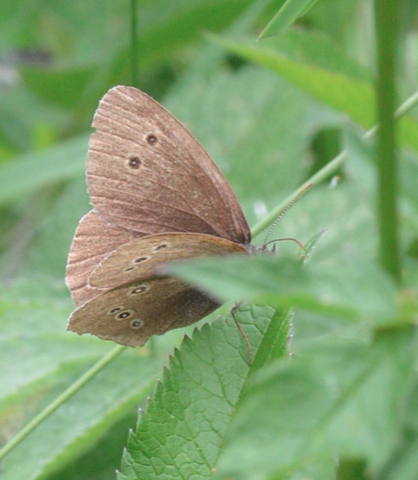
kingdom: Animalia
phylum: Arthropoda
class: Insecta
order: Lepidoptera
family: Nymphalidae
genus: Aphantopus
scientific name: Aphantopus hyperantus
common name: Ringlet
